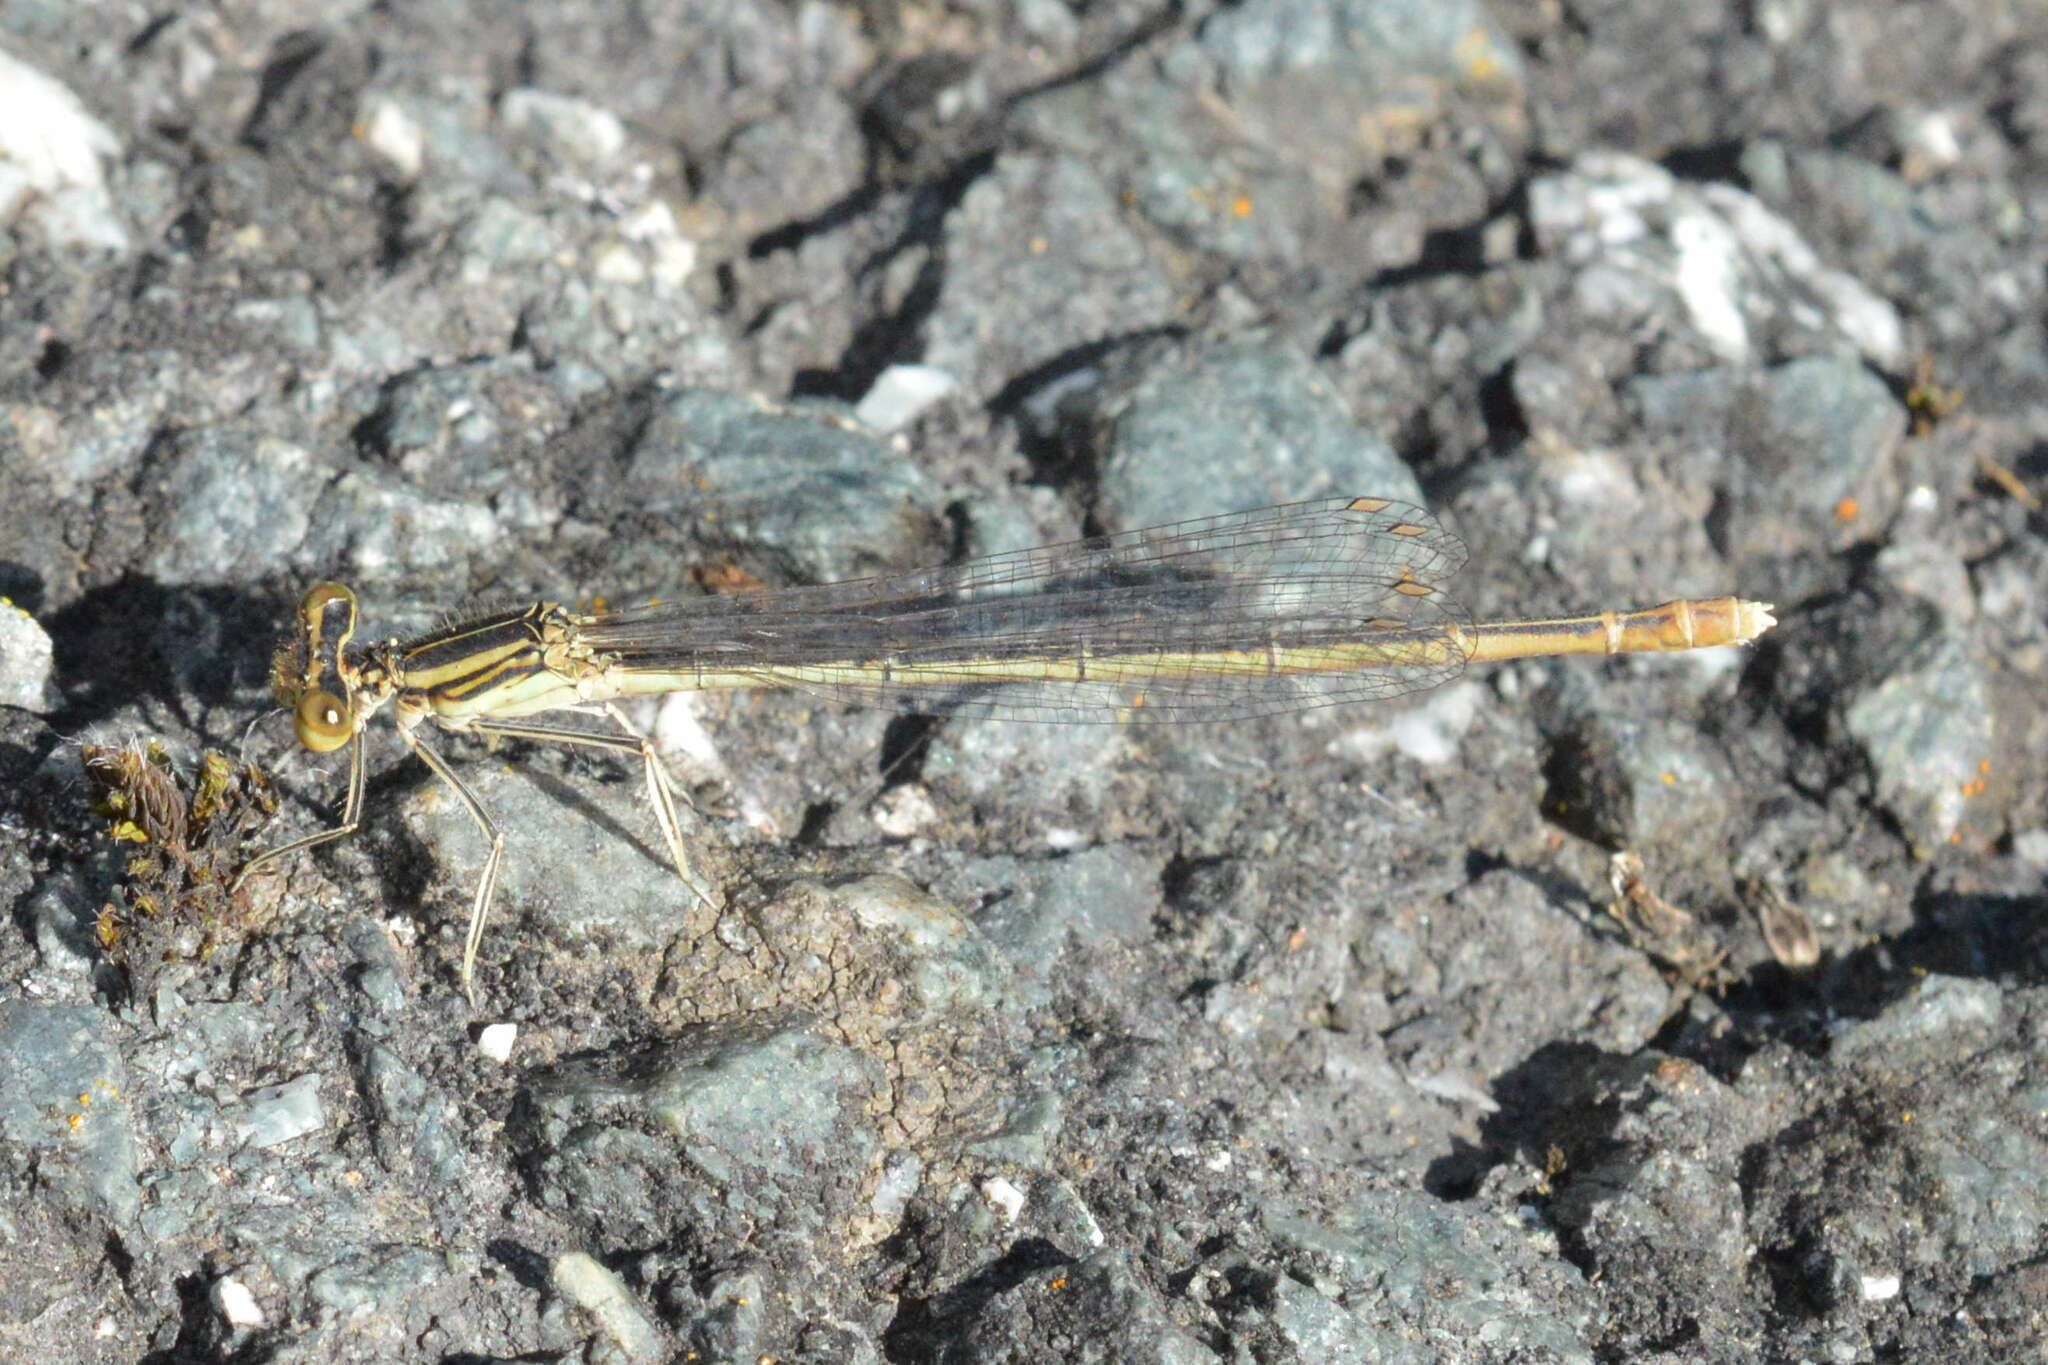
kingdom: Animalia
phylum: Arthropoda
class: Insecta
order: Odonata
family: Platycnemididae
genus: Platycnemis
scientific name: Platycnemis pennipes
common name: White-legged damselfly
